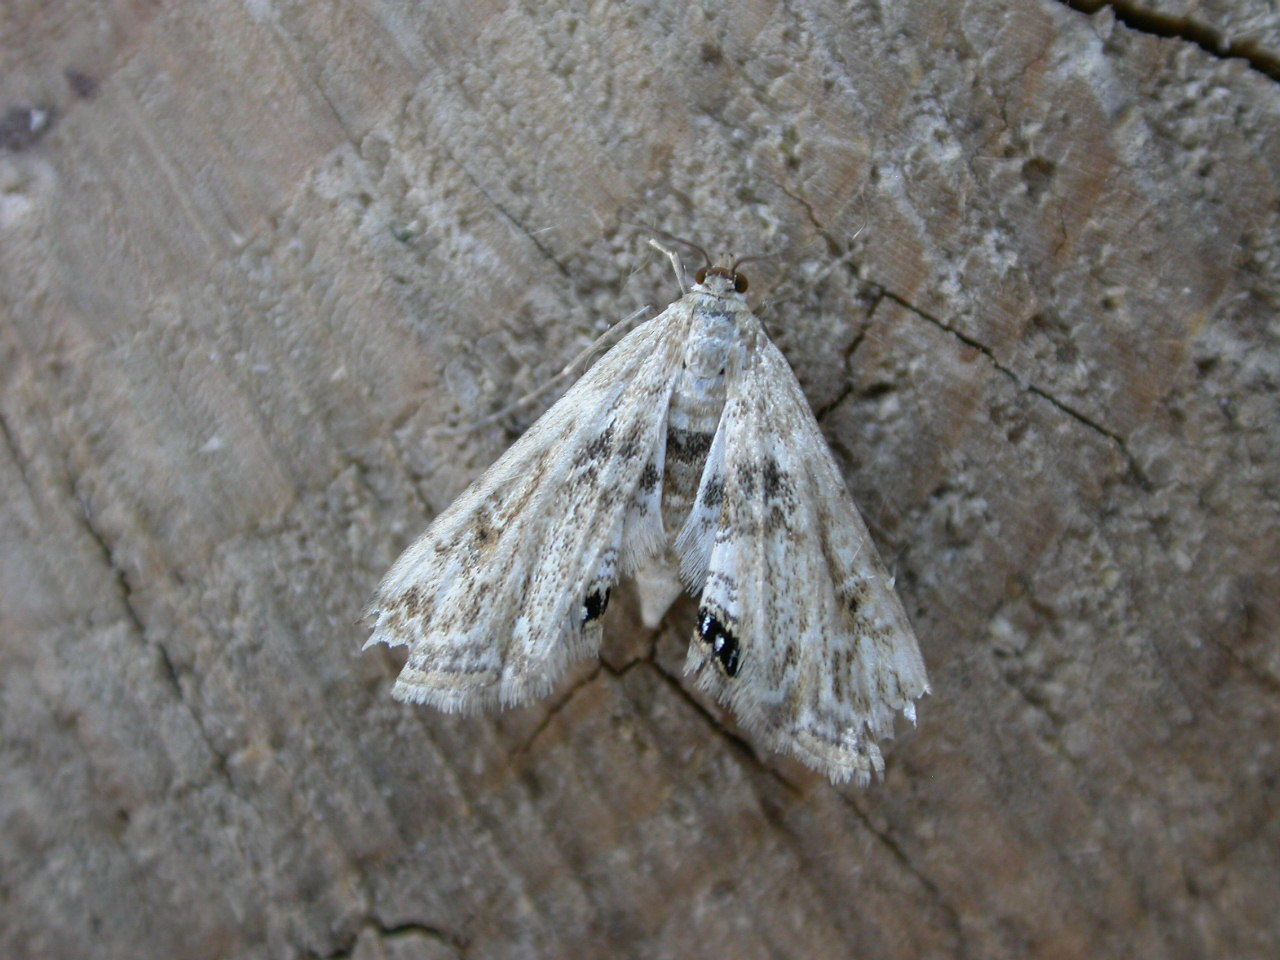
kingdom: Animalia
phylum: Arthropoda
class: Insecta
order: Lepidoptera
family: Crambidae
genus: Cataclysta
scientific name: Cataclysta lemnata
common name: Small china-mark
